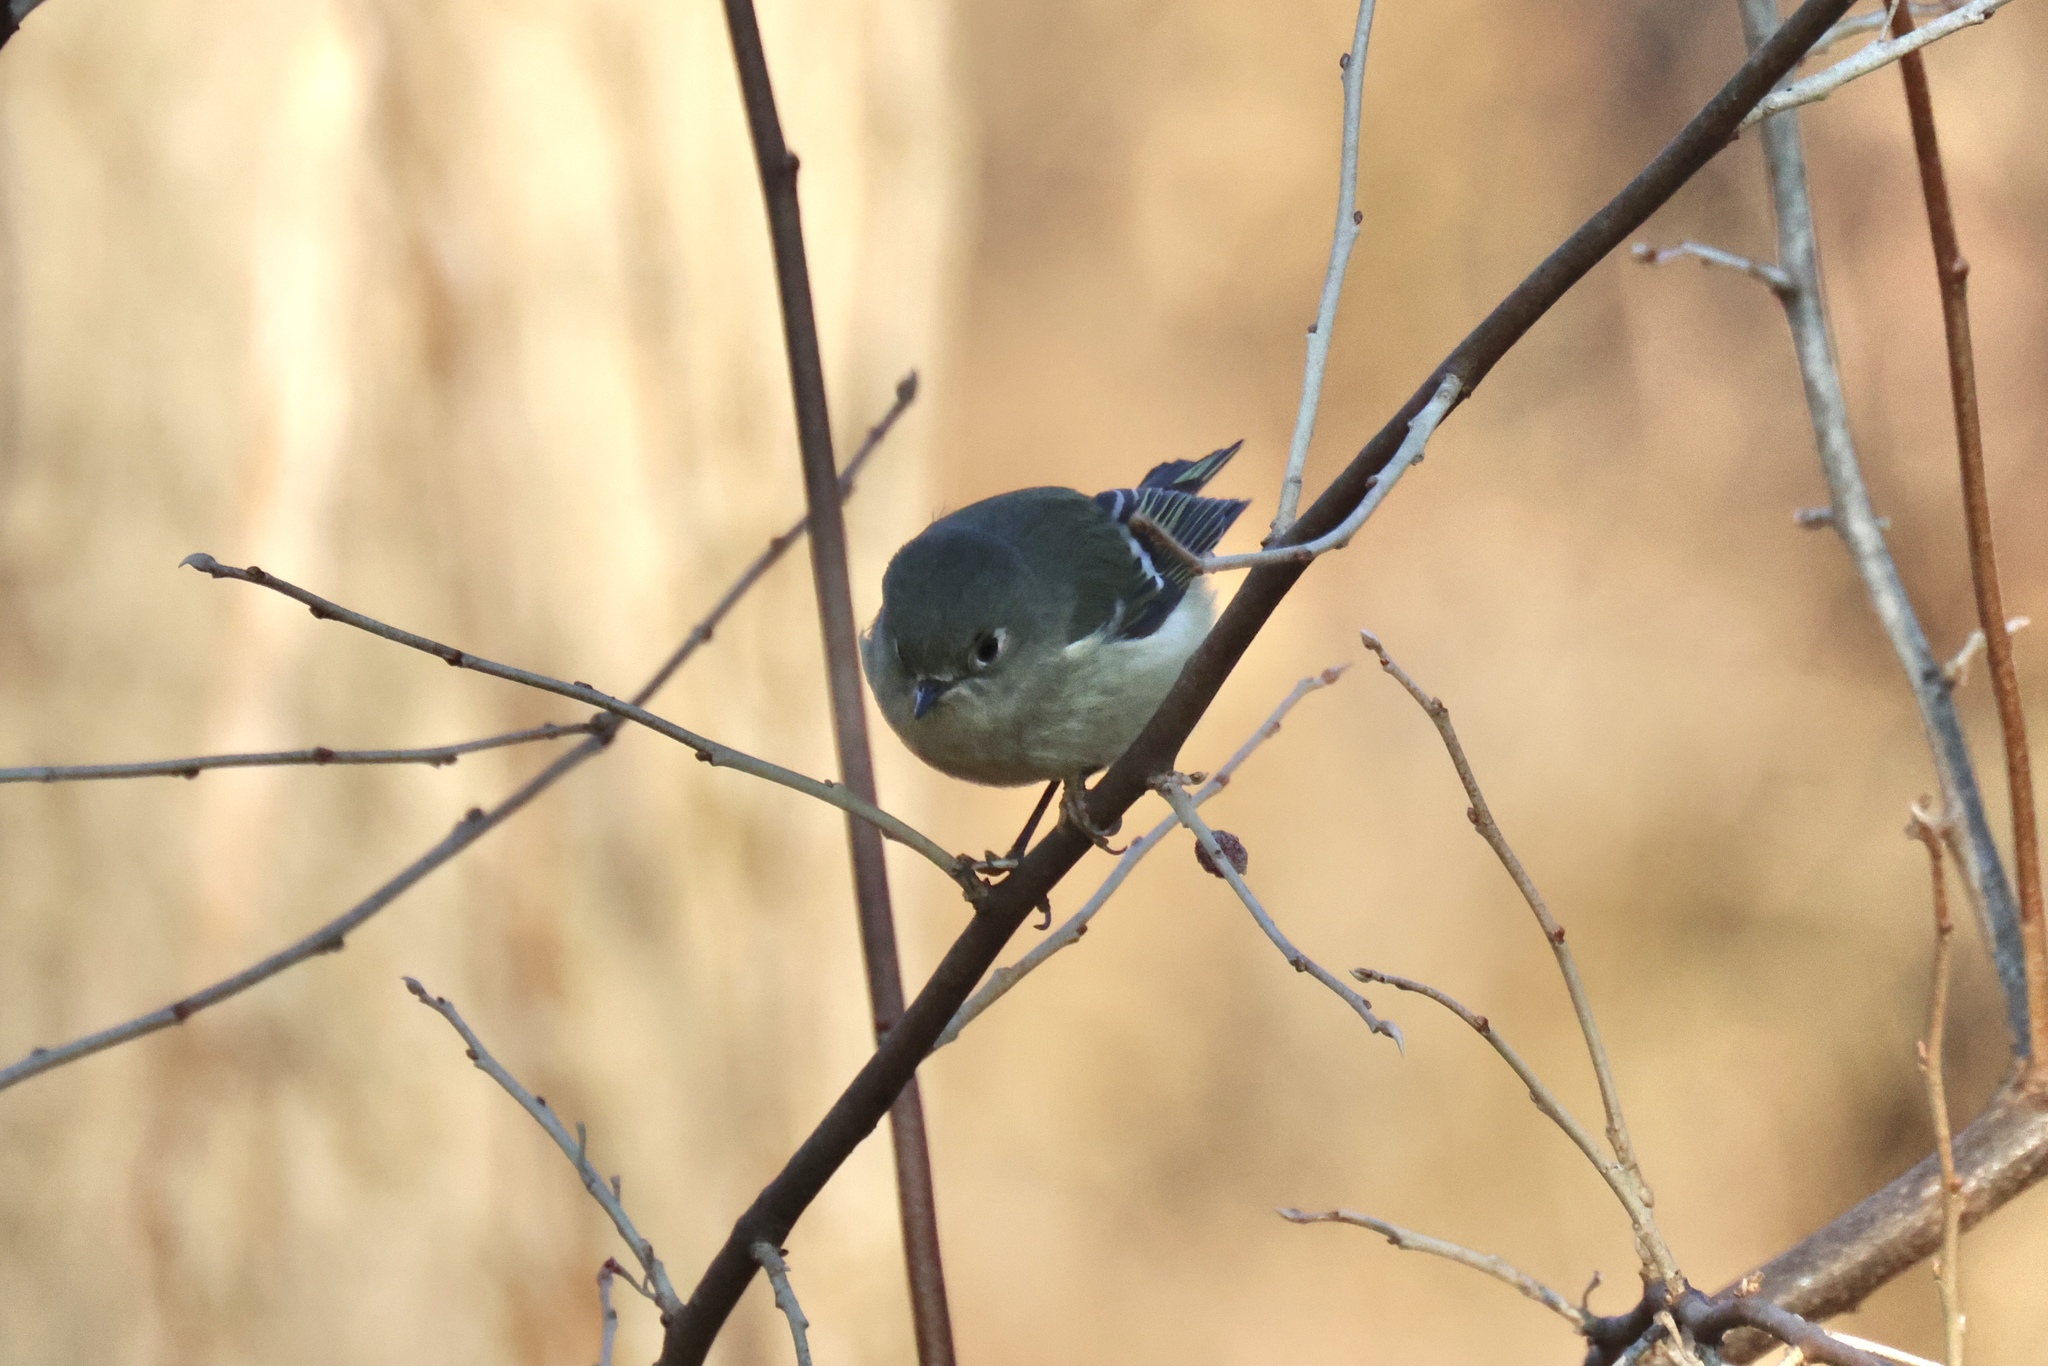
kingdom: Animalia
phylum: Chordata
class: Aves
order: Passeriformes
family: Regulidae
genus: Regulus
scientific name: Regulus calendula
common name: Ruby-crowned kinglet
